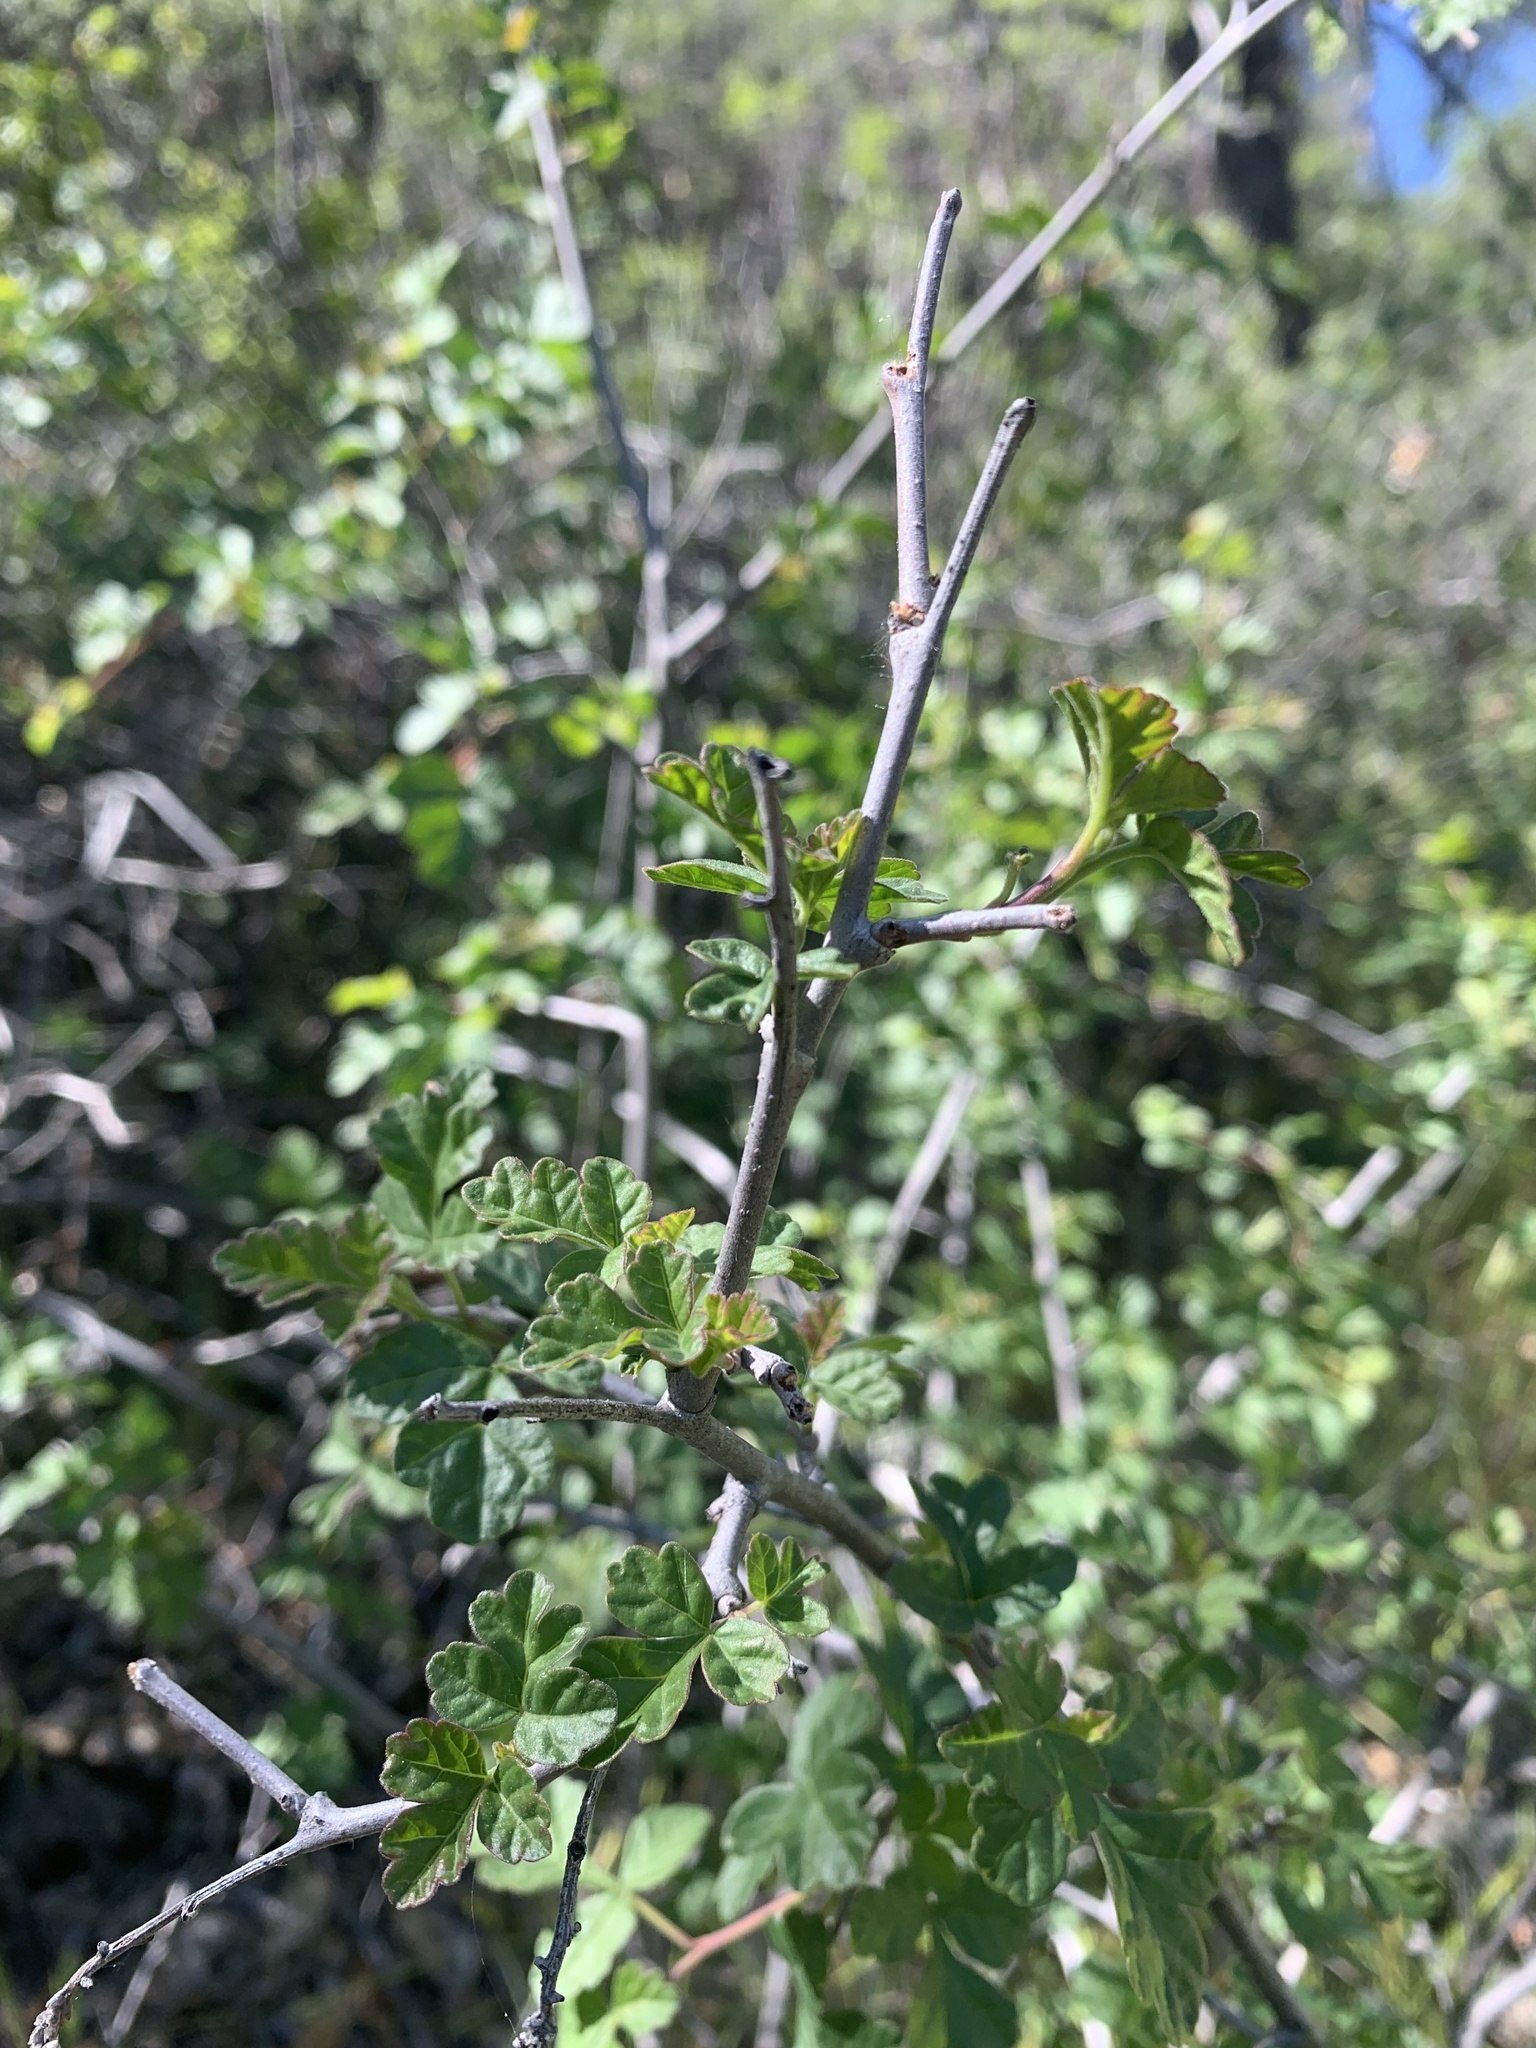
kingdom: Plantae
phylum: Tracheophyta
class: Magnoliopsida
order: Sapindales
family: Anacardiaceae
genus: Rhus
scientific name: Rhus aromatica
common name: Aromatic sumac
